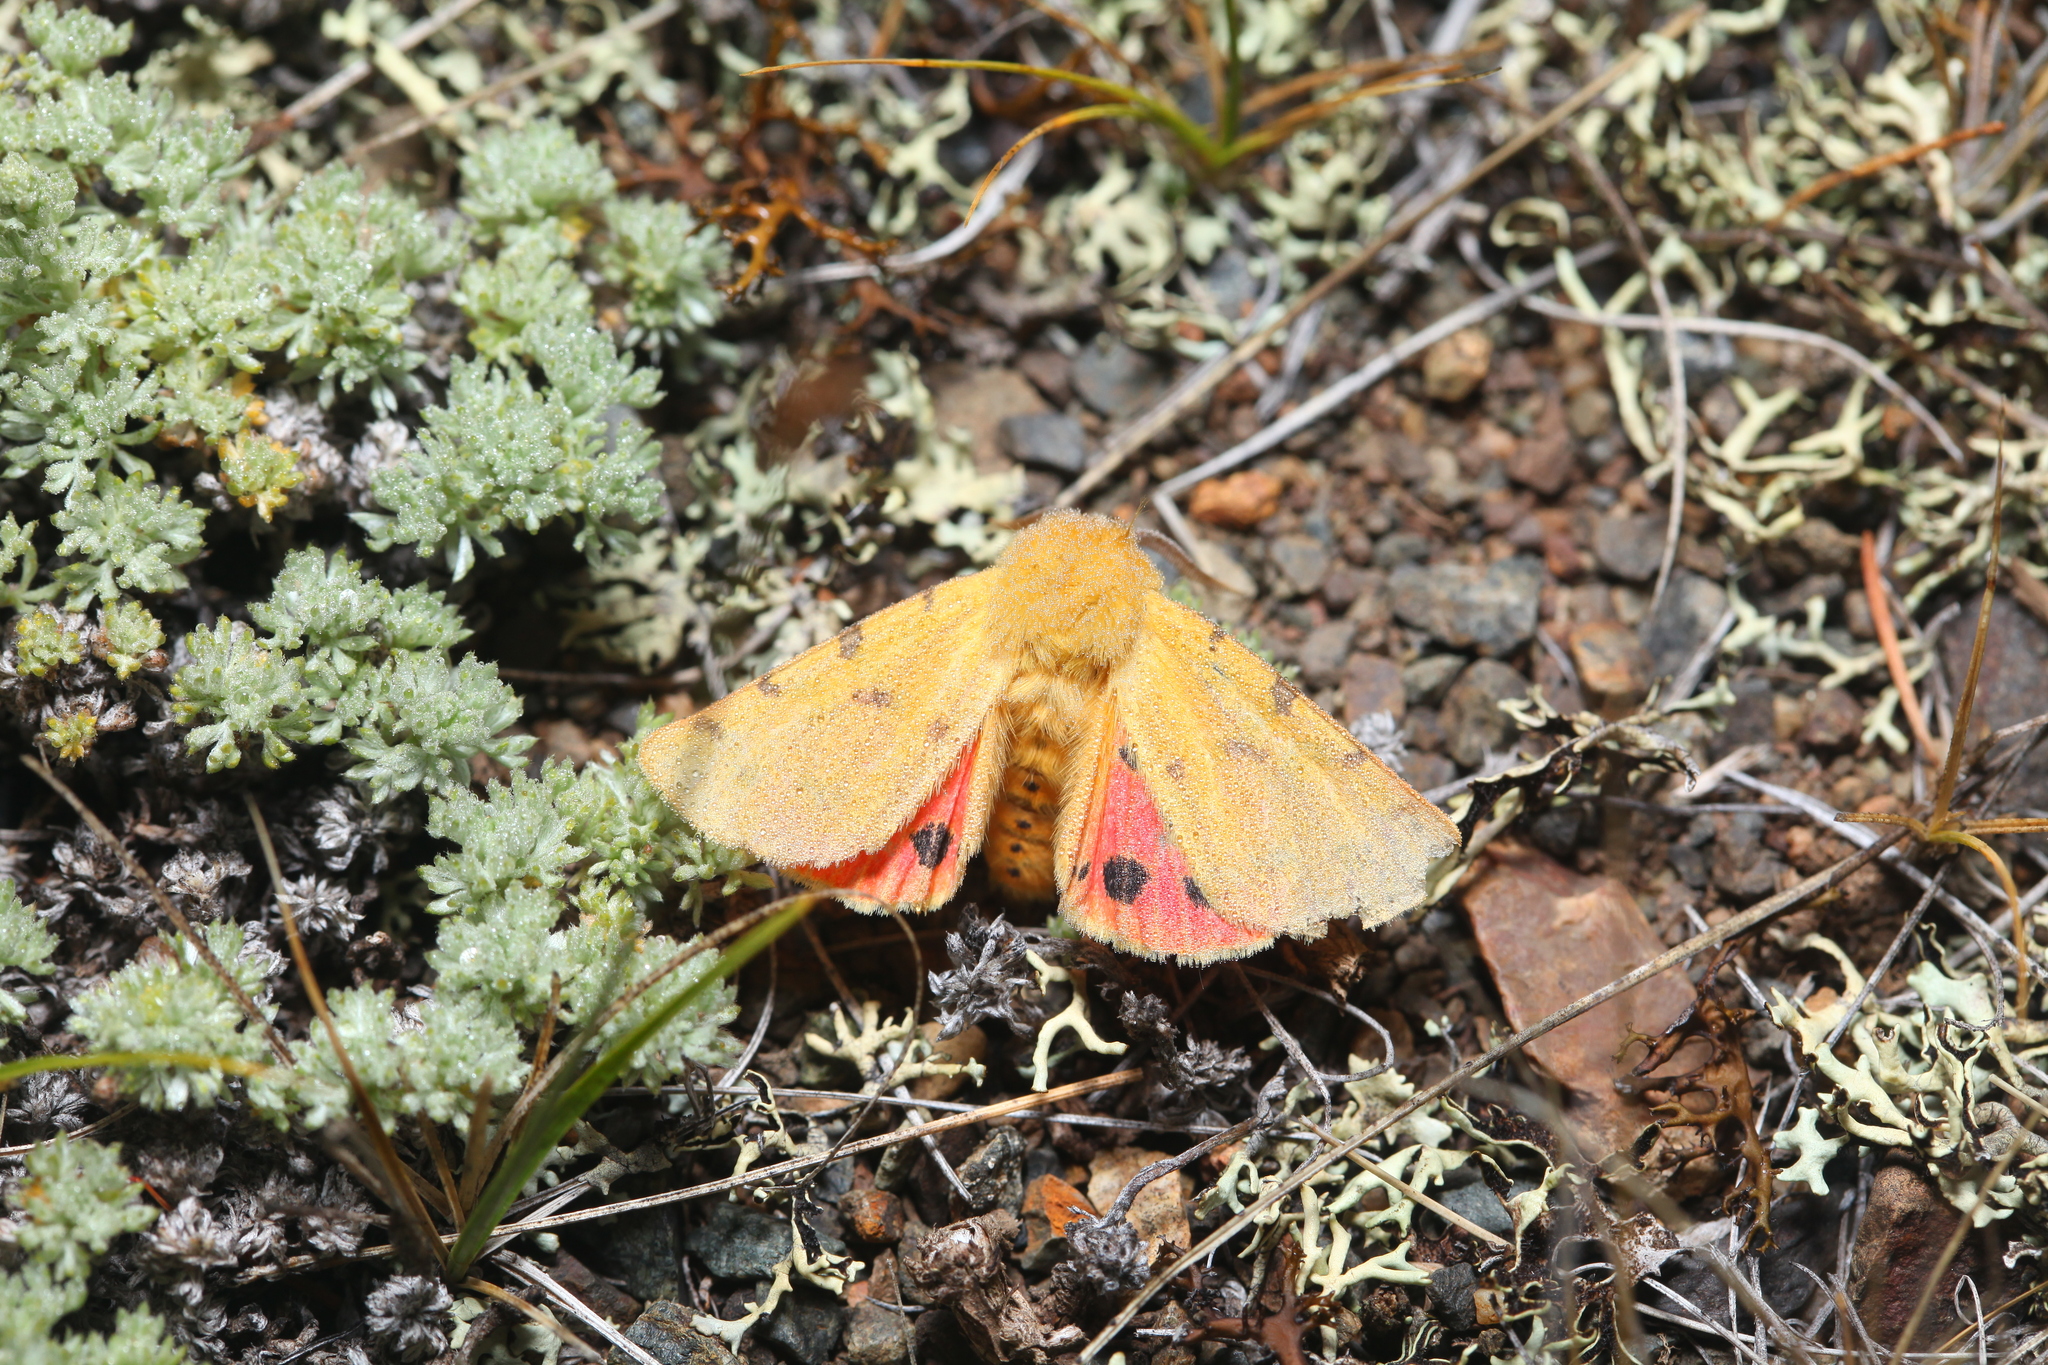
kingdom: Animalia
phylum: Arthropoda
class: Insecta
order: Lepidoptera
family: Erebidae
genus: Rhyparia
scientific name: Rhyparia purpurata
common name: Purple tiger
